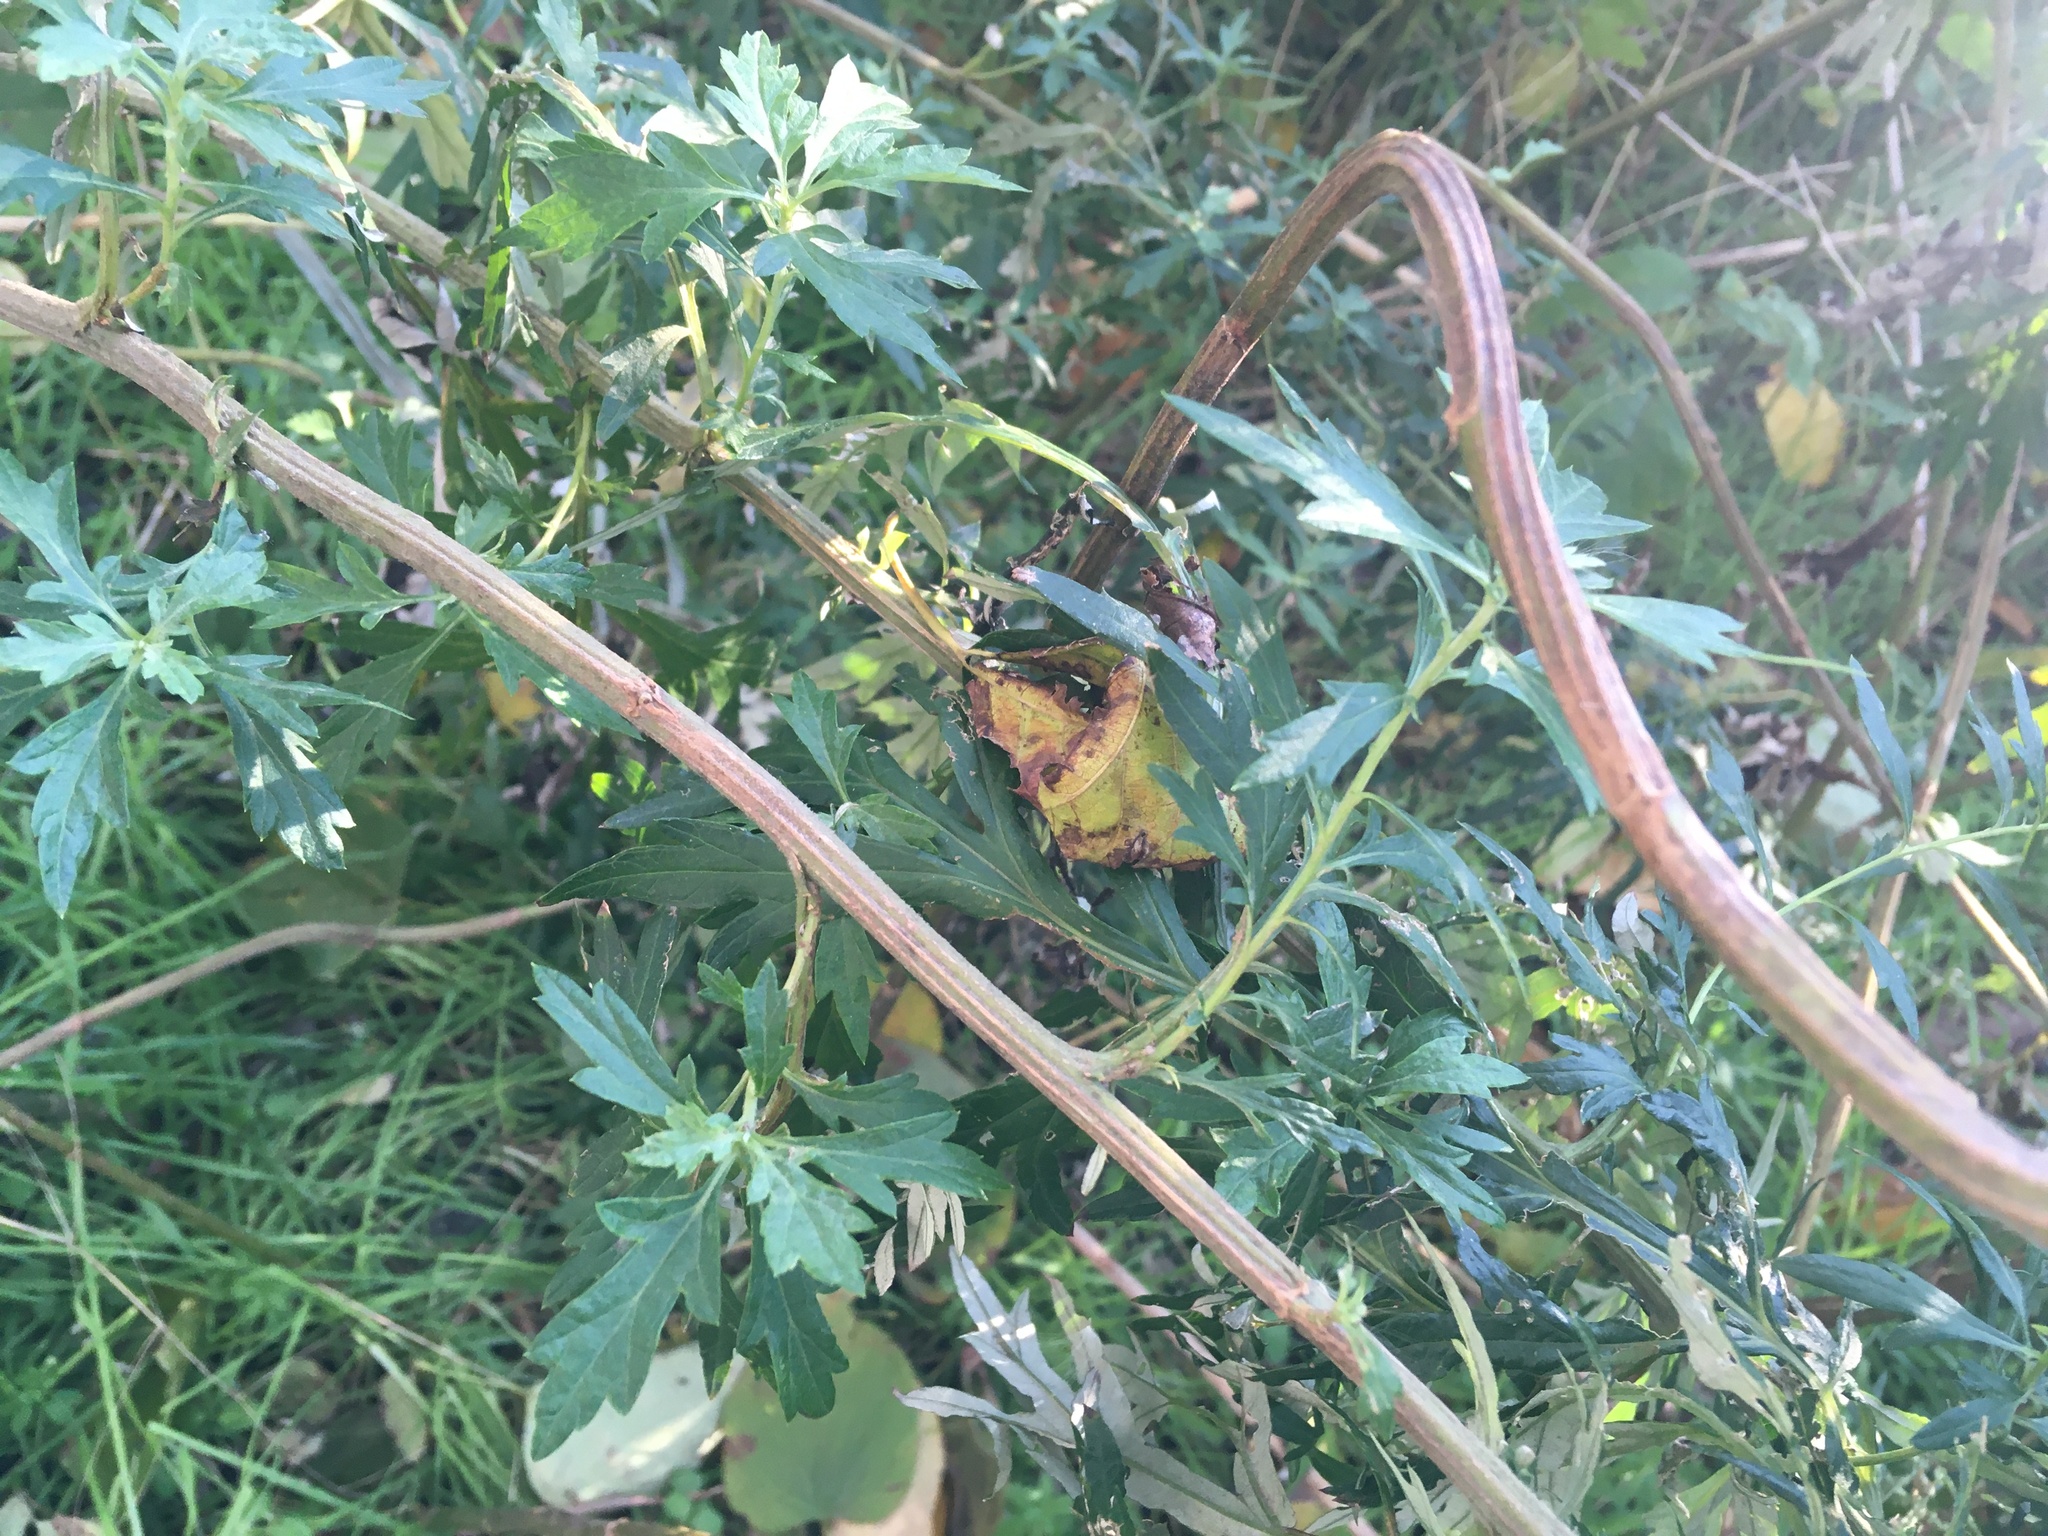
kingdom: Plantae
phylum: Tracheophyta
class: Magnoliopsida
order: Asterales
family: Asteraceae
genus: Artemisia
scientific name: Artemisia vulgaris
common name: Mugwort
